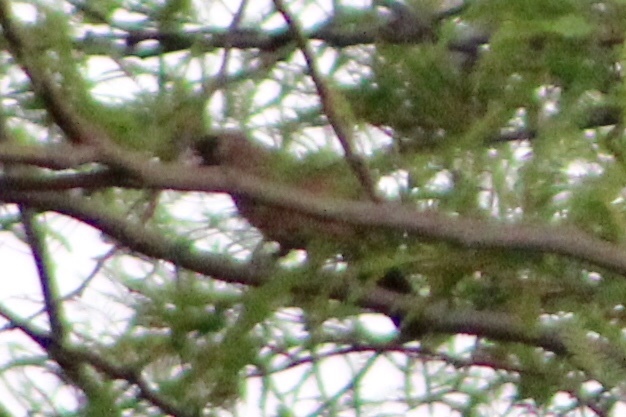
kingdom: Animalia
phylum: Chordata
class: Aves
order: Passeriformes
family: Passerellidae
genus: Melozone
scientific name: Melozone aberti
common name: Abert's towhee
